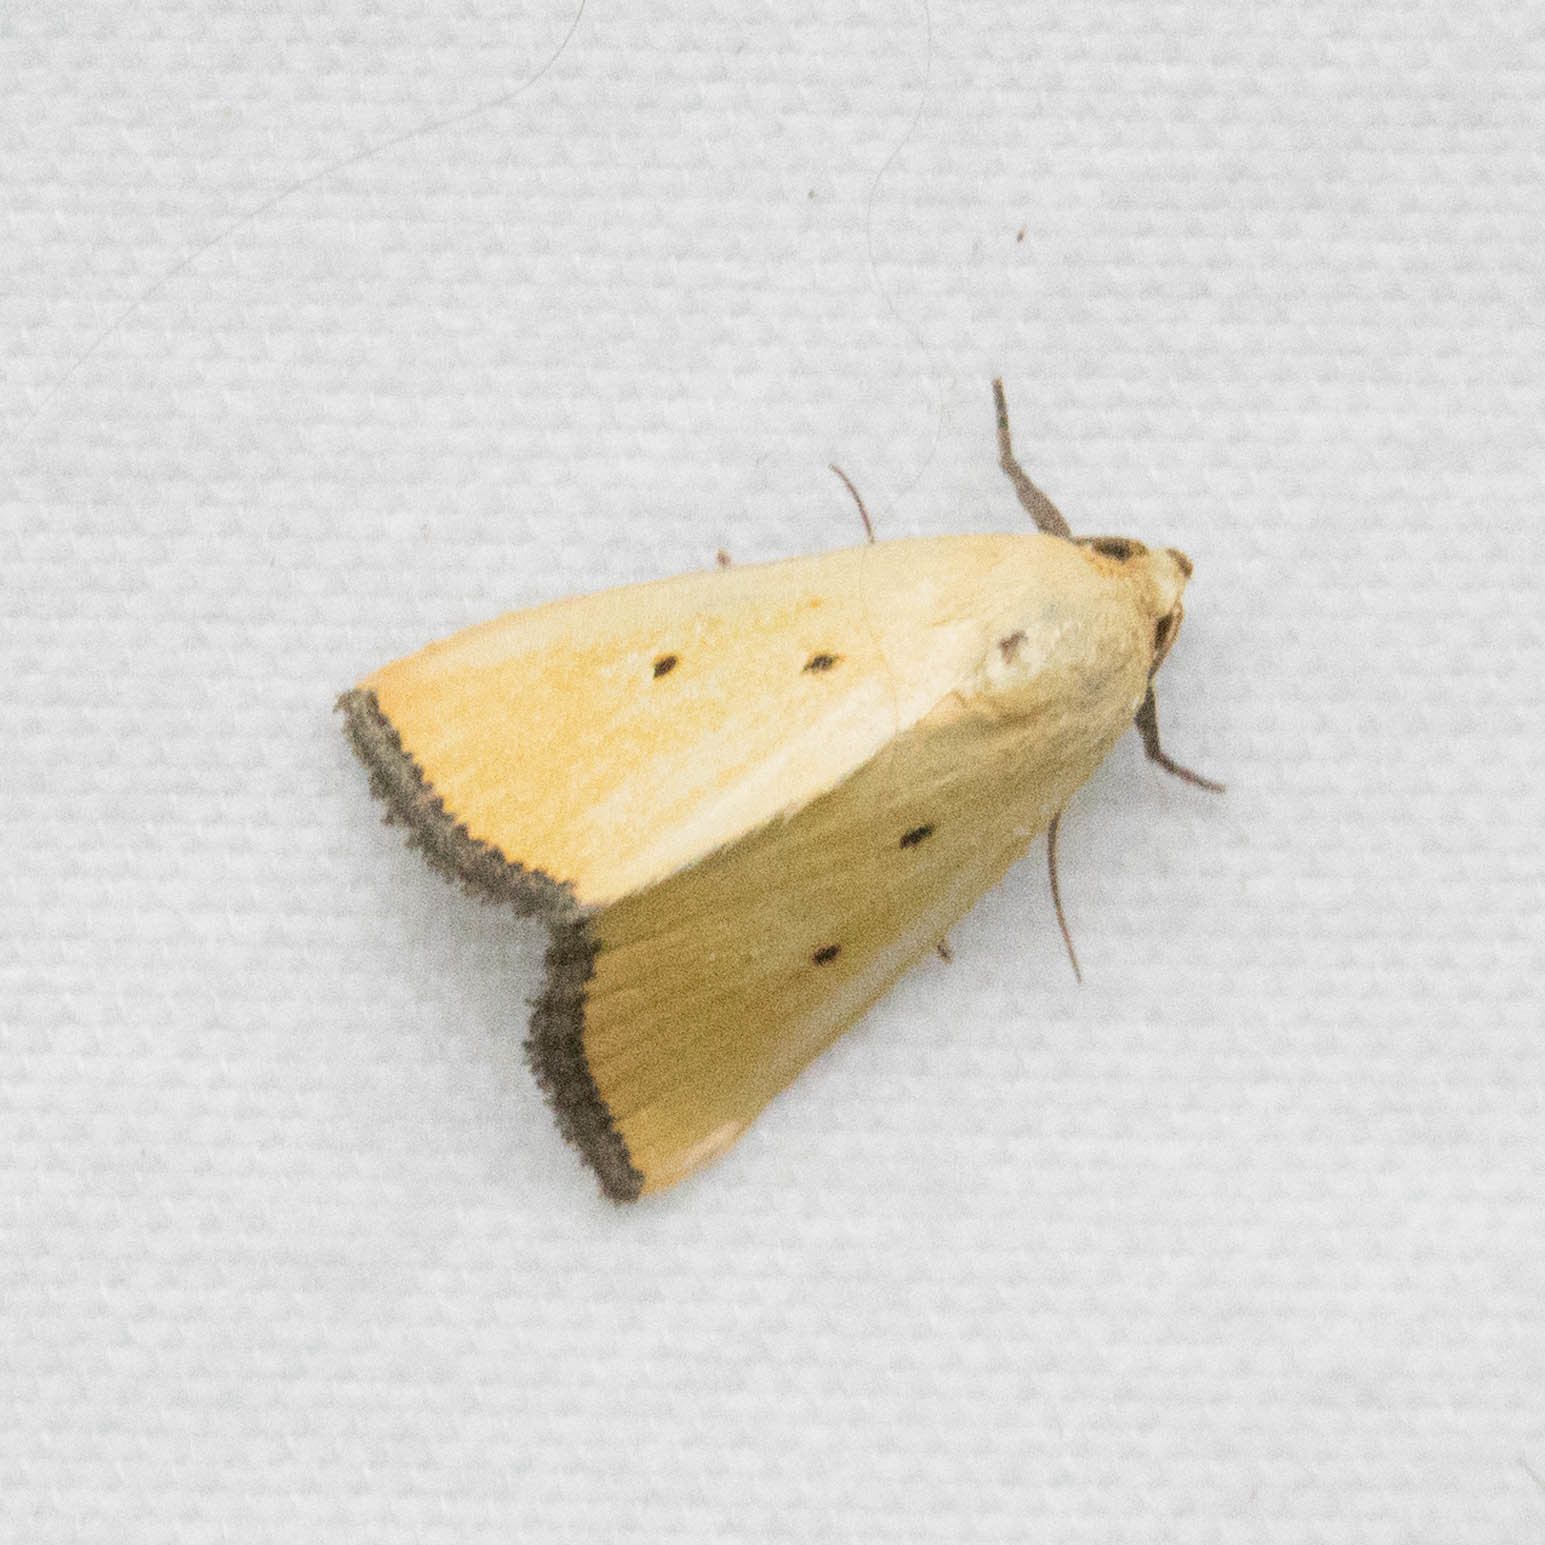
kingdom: Animalia
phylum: Arthropoda
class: Insecta
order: Lepidoptera
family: Noctuidae
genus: Marimatha
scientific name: Marimatha nigrofimbria
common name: Black-bordered lemon moth
